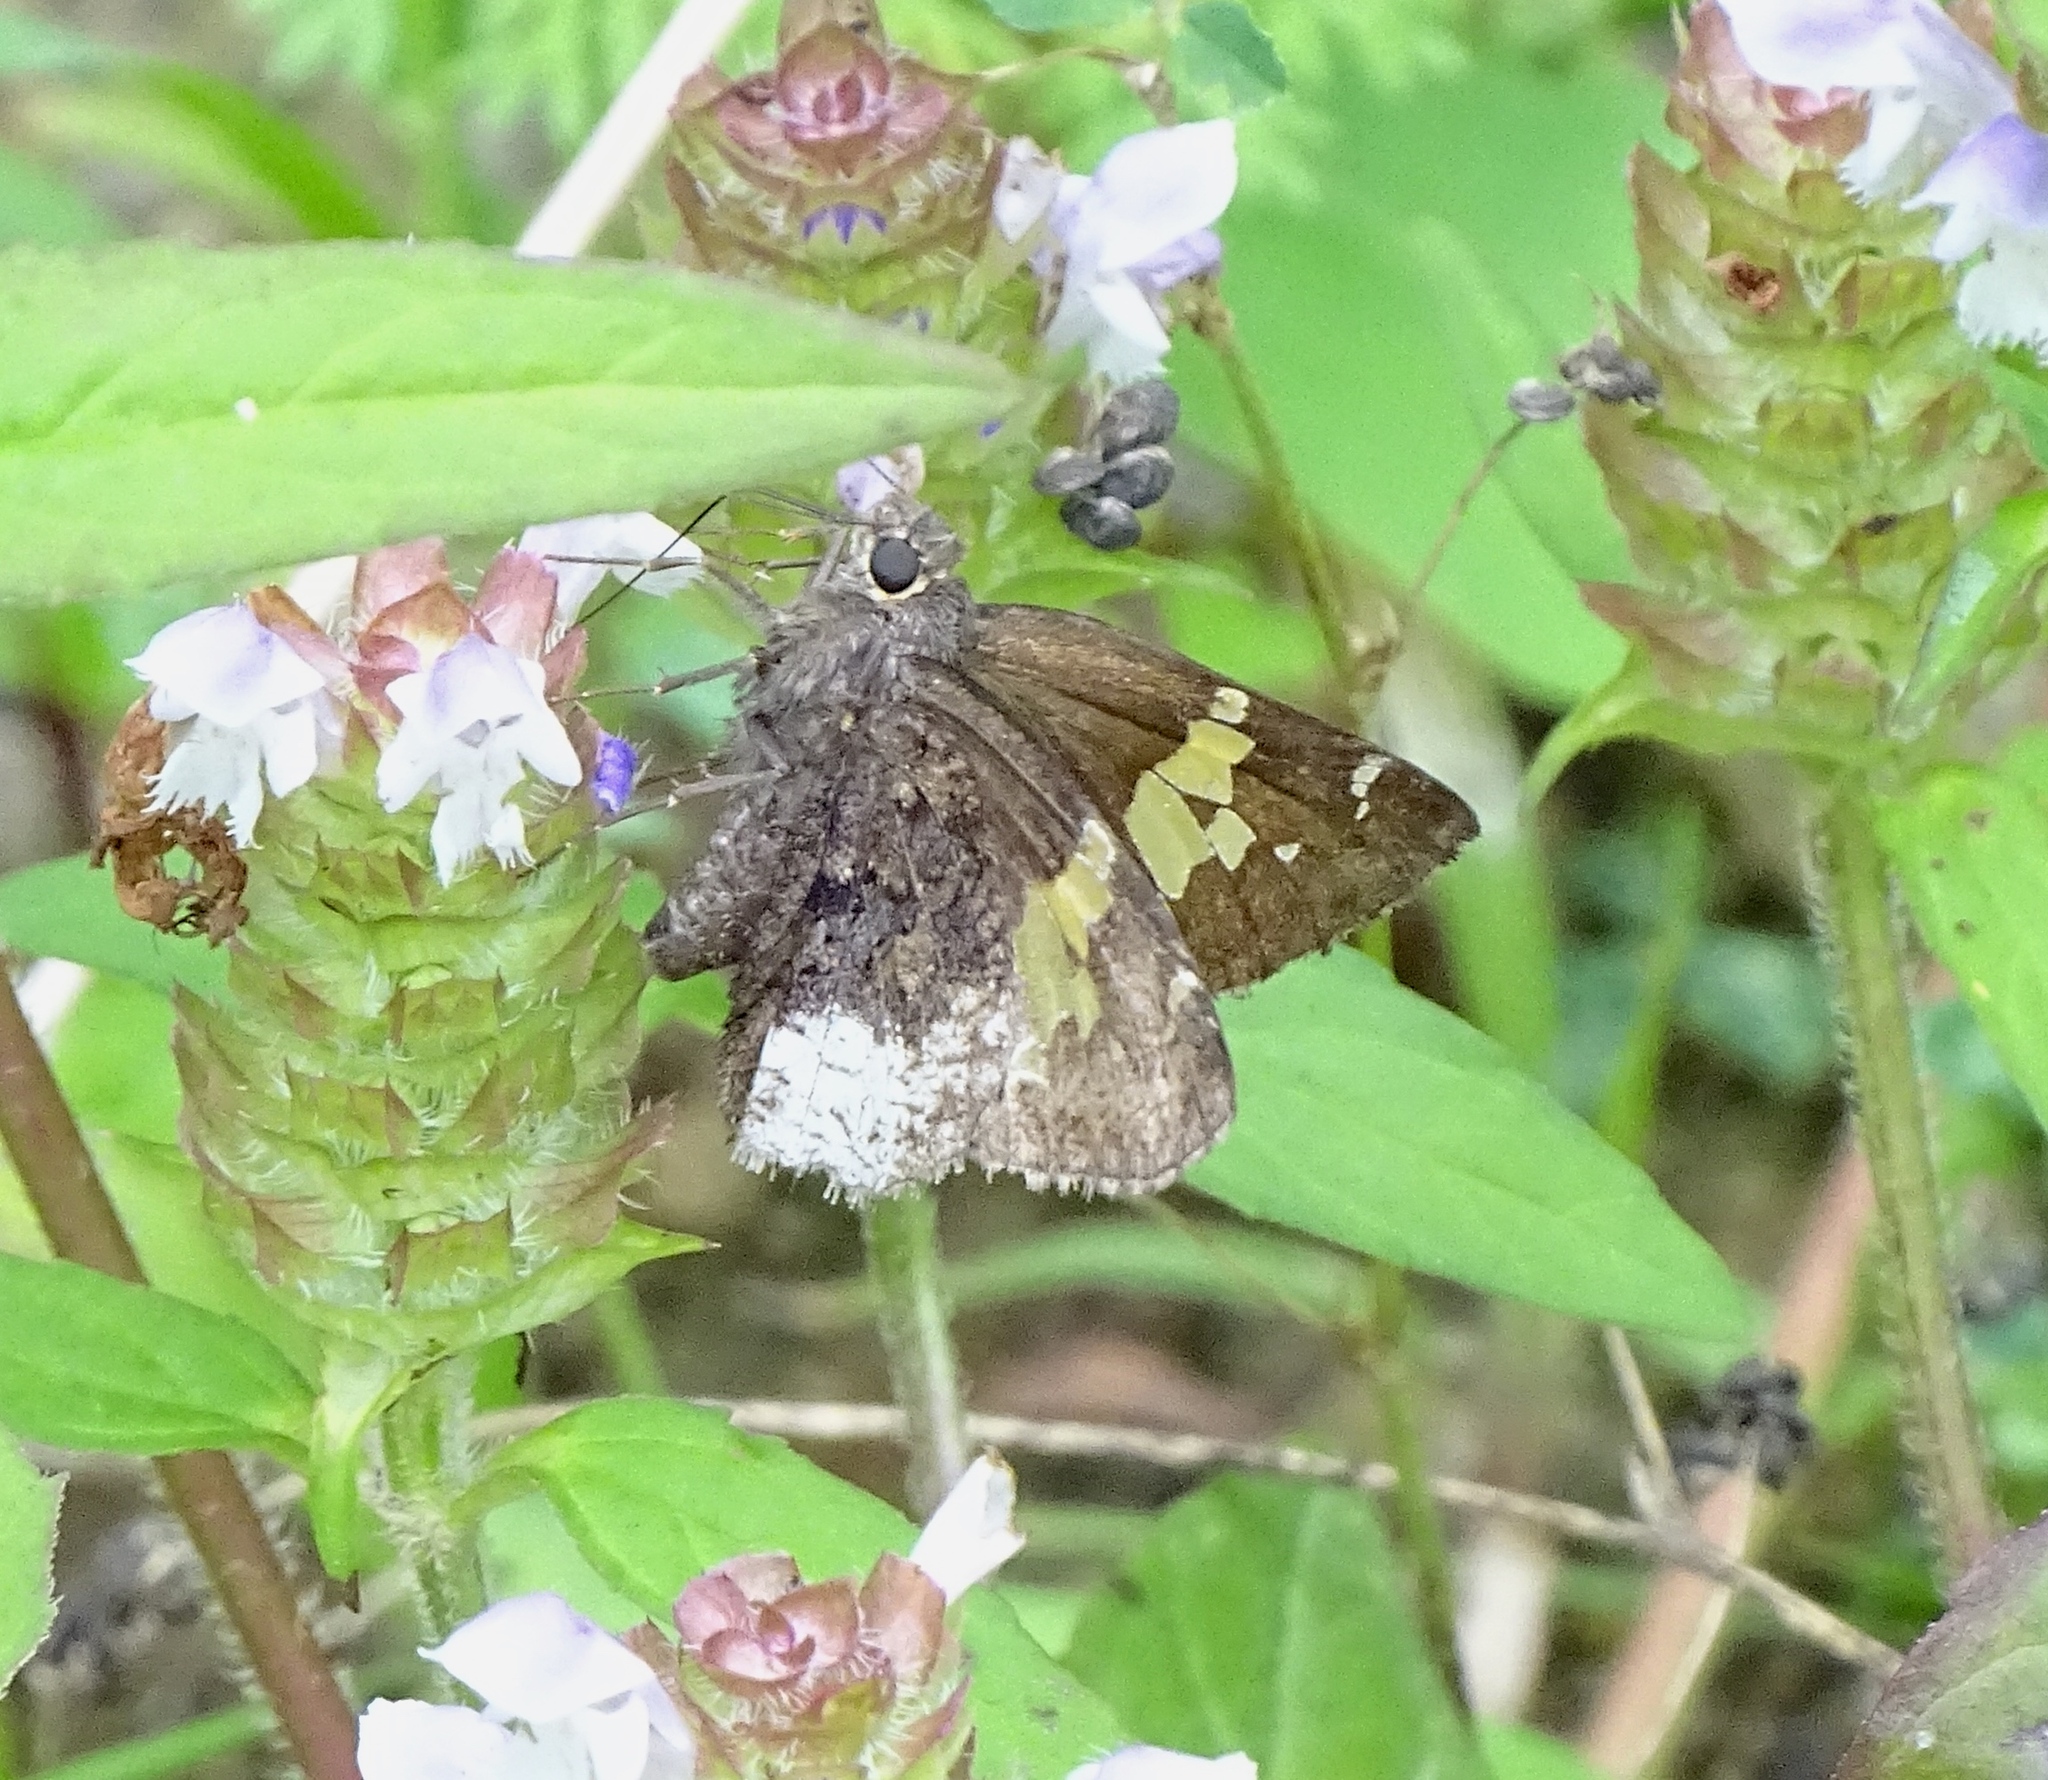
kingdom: Animalia
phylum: Arthropoda
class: Insecta
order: Lepidoptera
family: Hesperiidae
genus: Thorybes
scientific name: Thorybes lyciades
